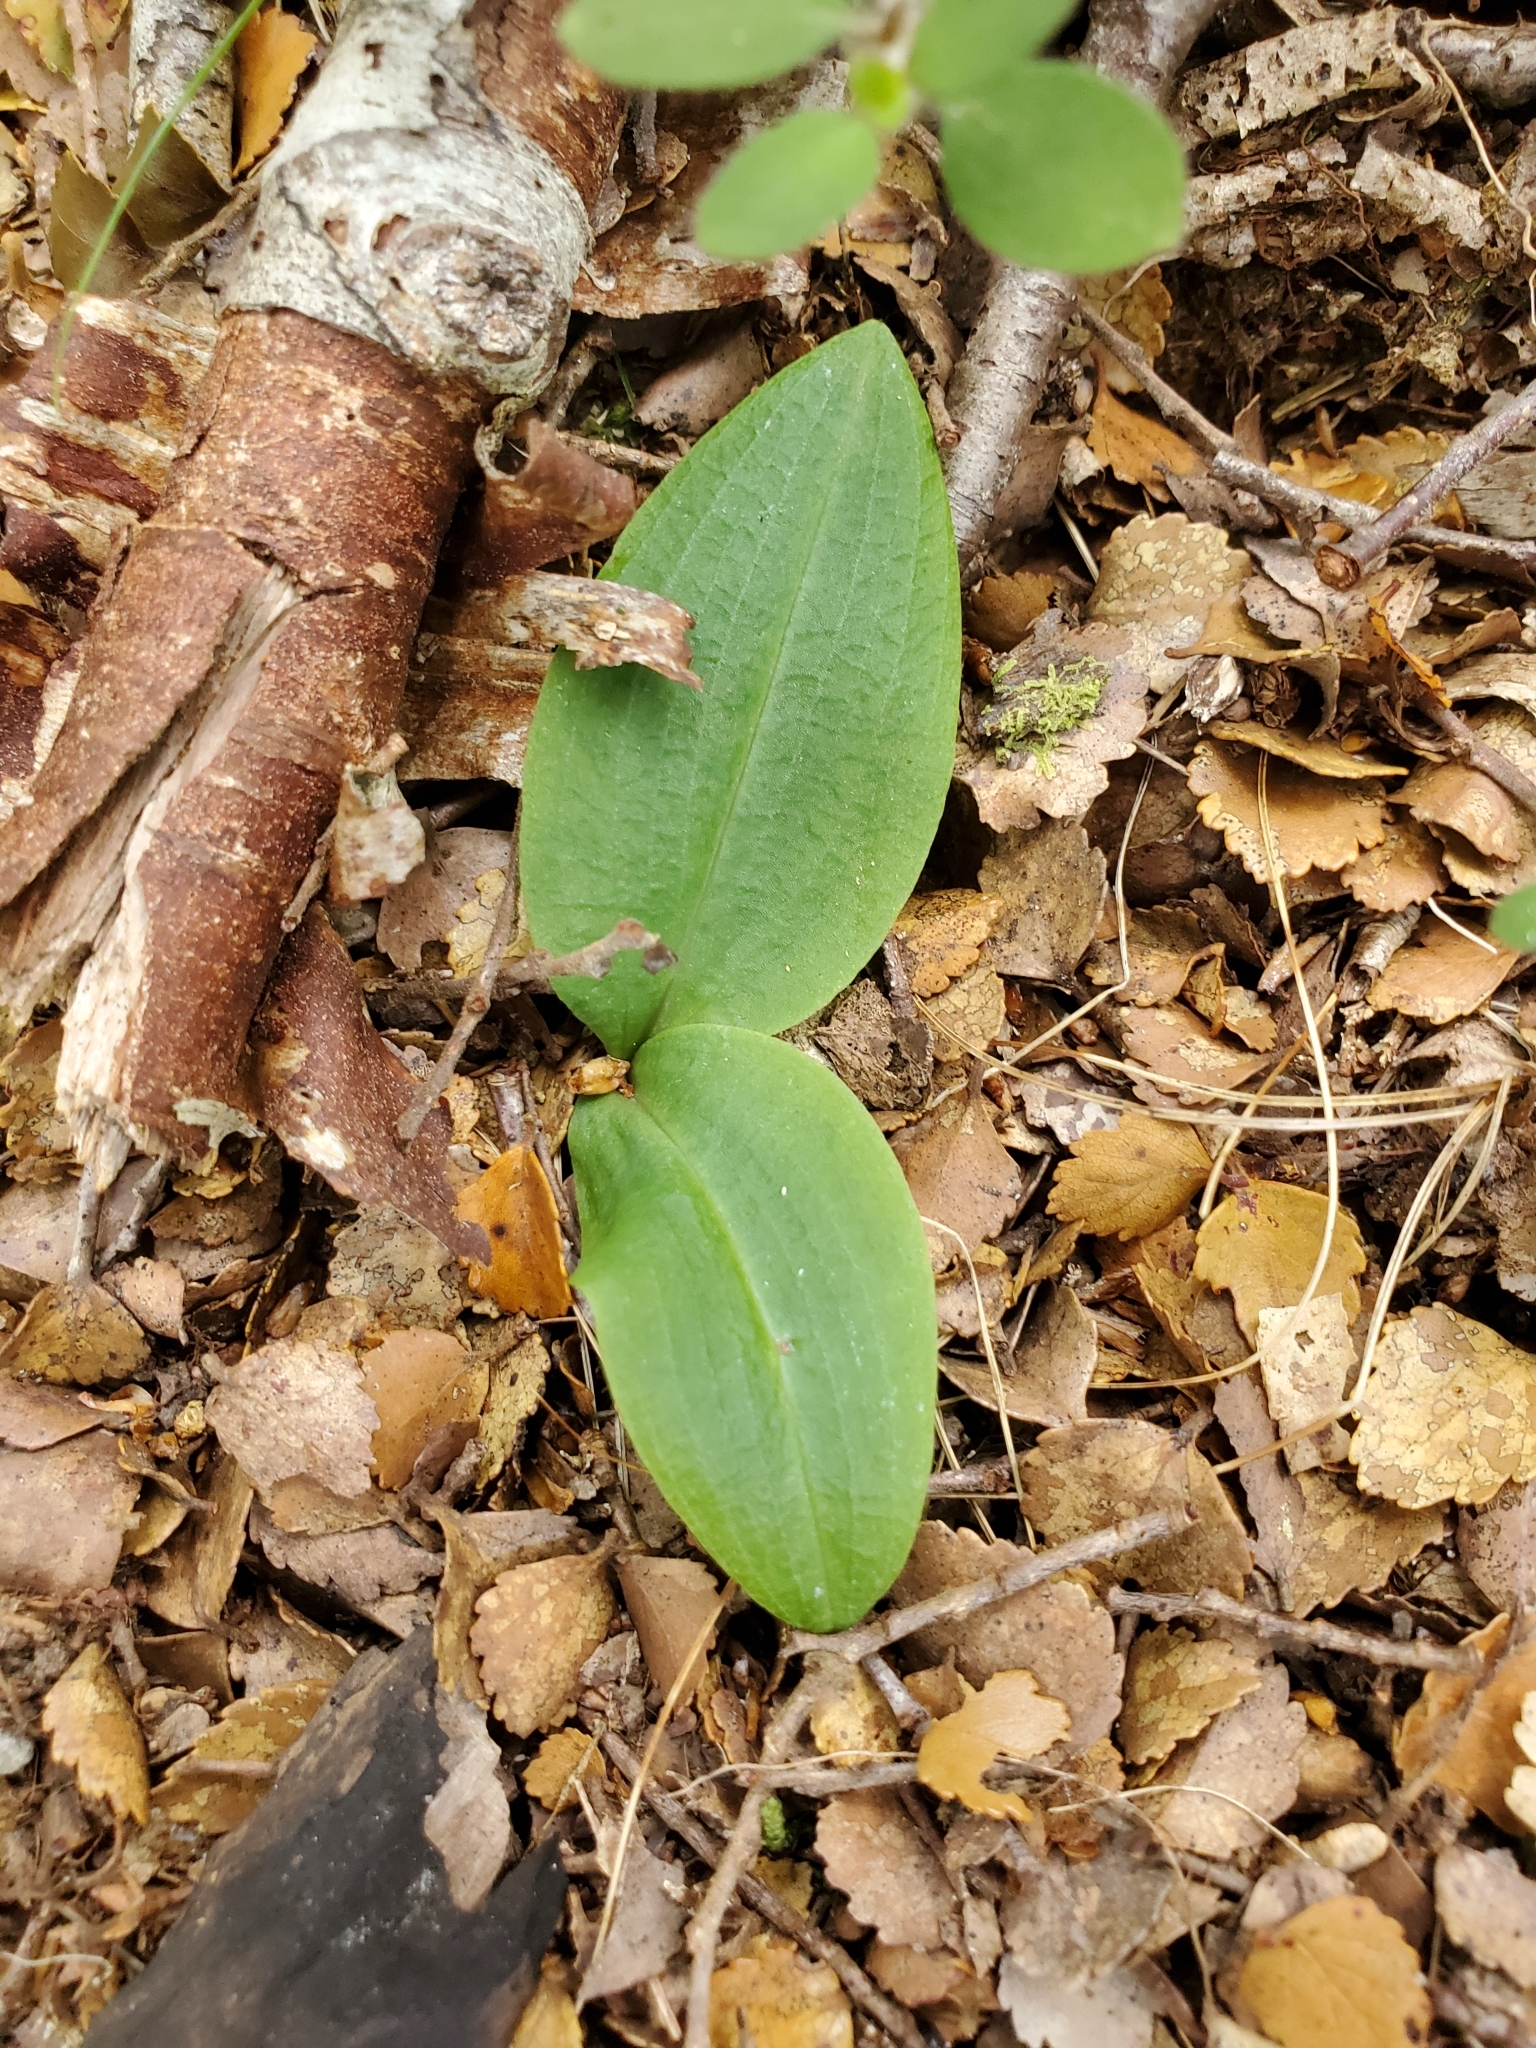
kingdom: Plantae
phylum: Tracheophyta
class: Liliopsida
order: Asparagales
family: Orchidaceae
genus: Chiloglottis
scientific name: Chiloglottis cornuta
